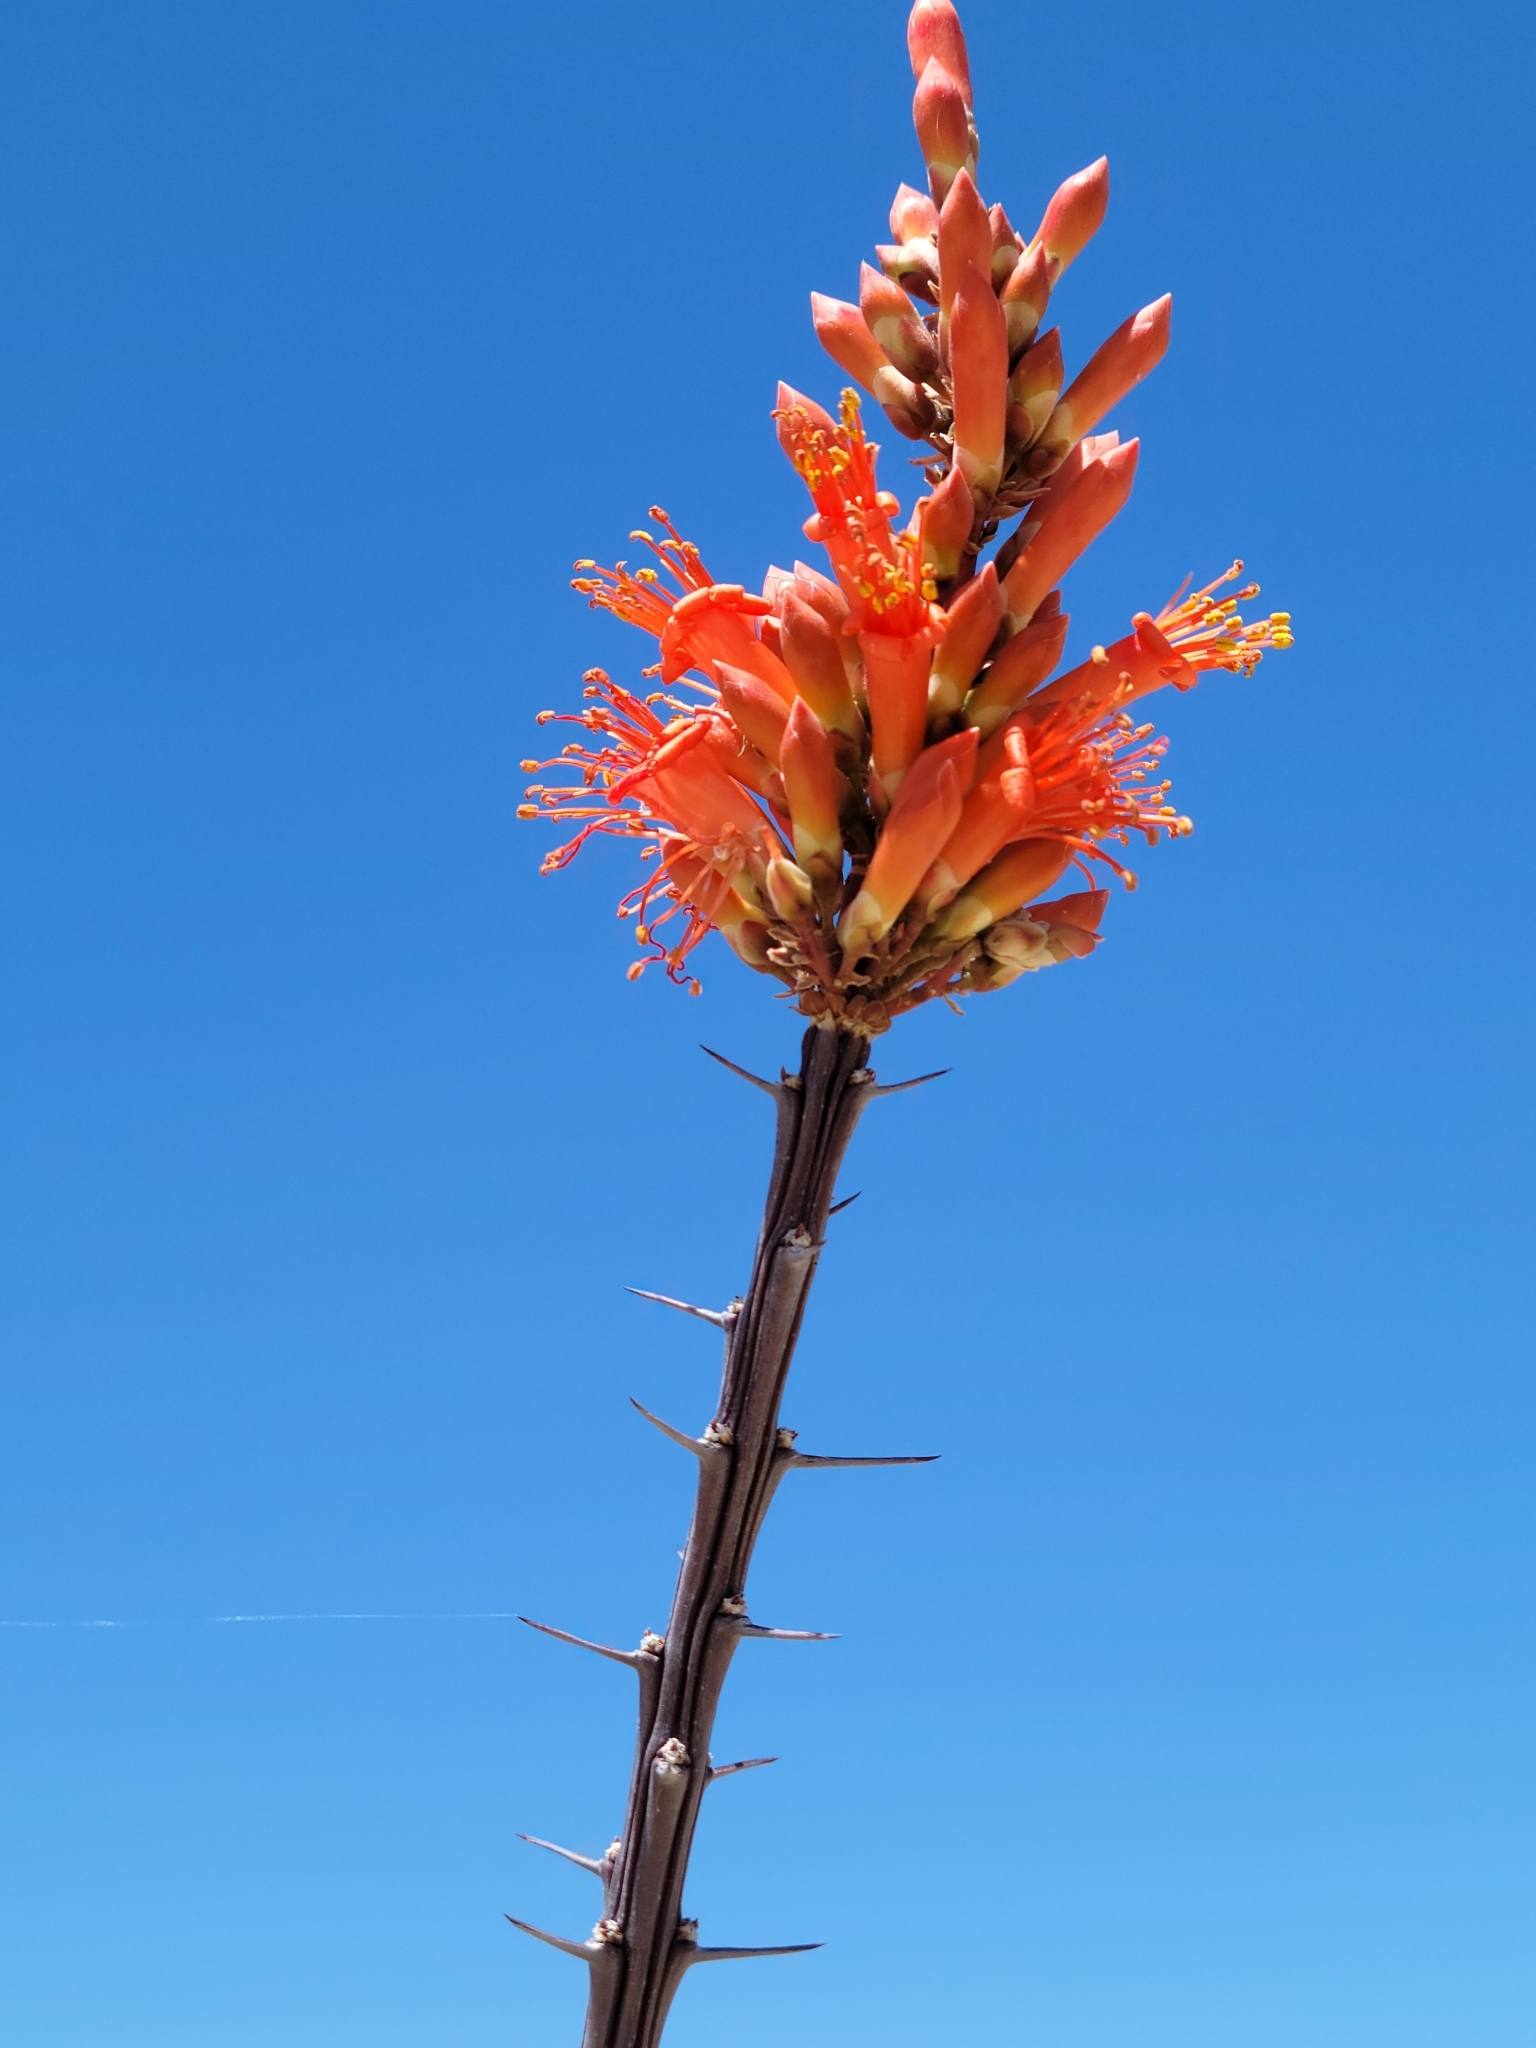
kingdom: Plantae
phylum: Tracheophyta
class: Magnoliopsida
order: Ericales
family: Fouquieriaceae
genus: Fouquieria
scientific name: Fouquieria splendens
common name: Vine-cactus
